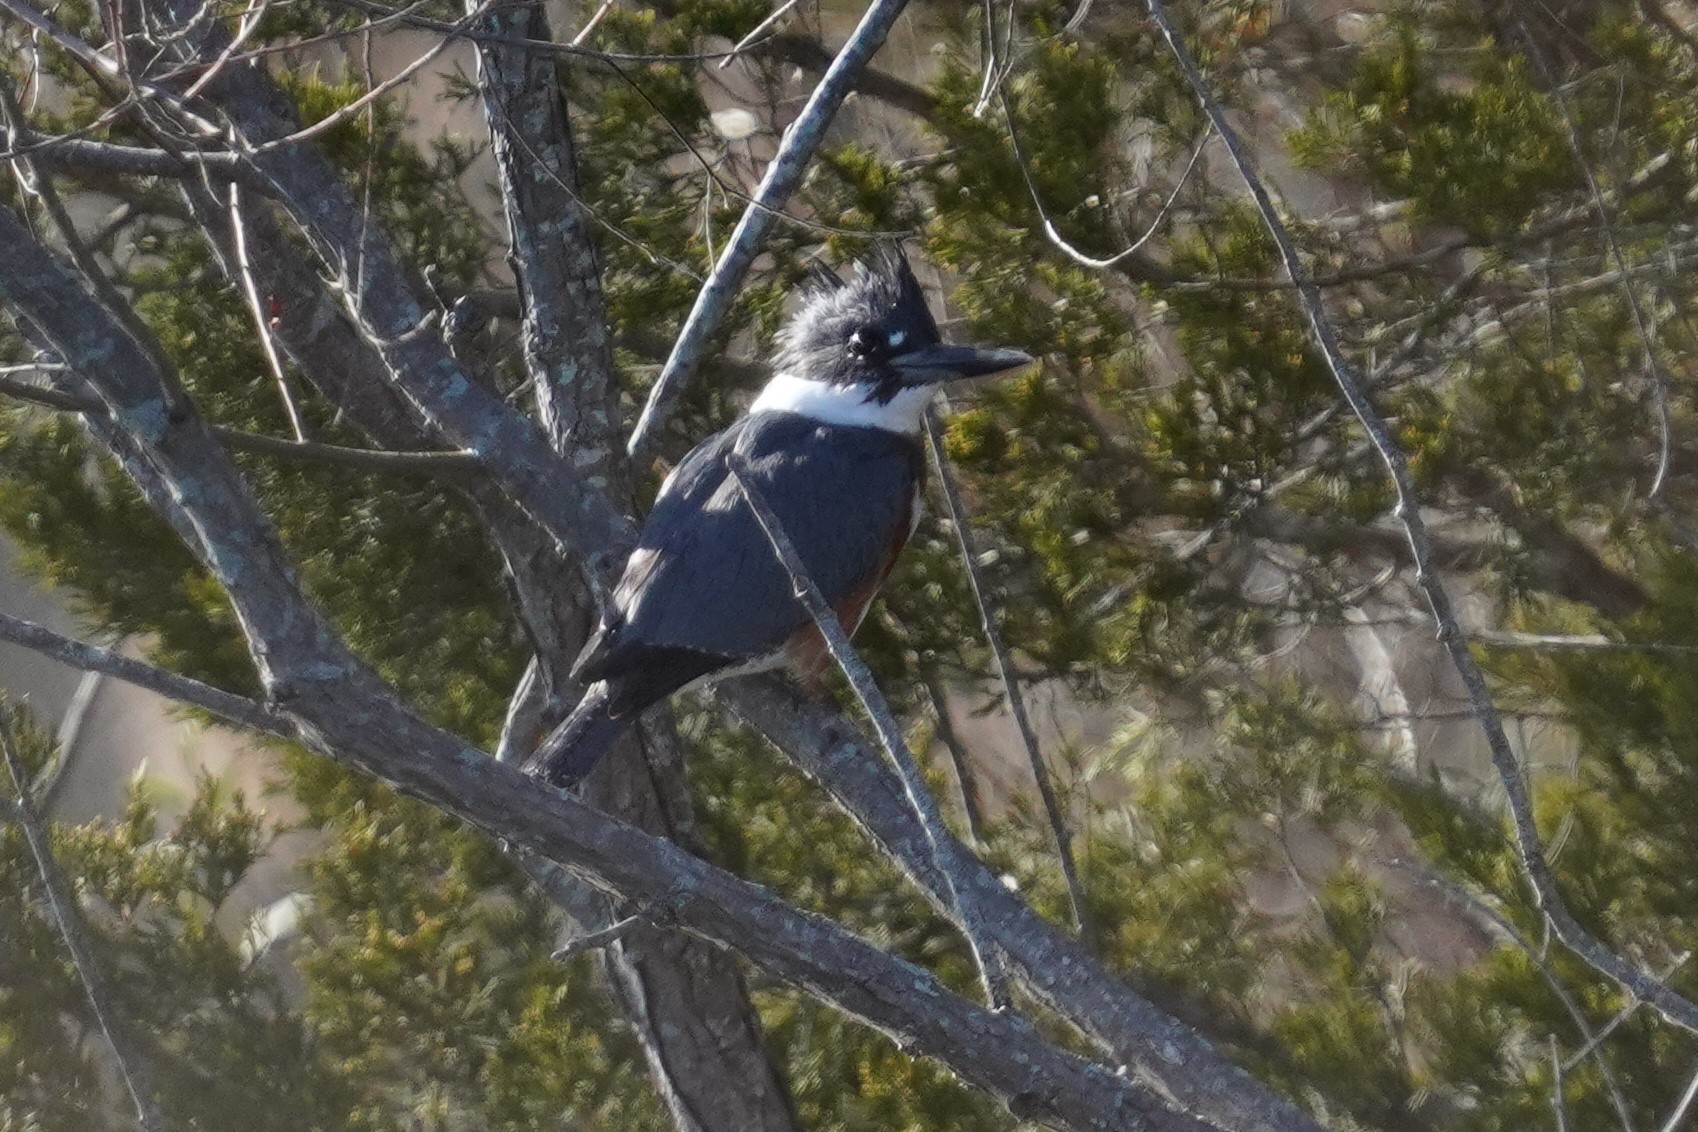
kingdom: Animalia
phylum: Chordata
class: Aves
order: Coraciiformes
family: Alcedinidae
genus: Megaceryle
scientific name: Megaceryle alcyon
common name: Belted kingfisher
